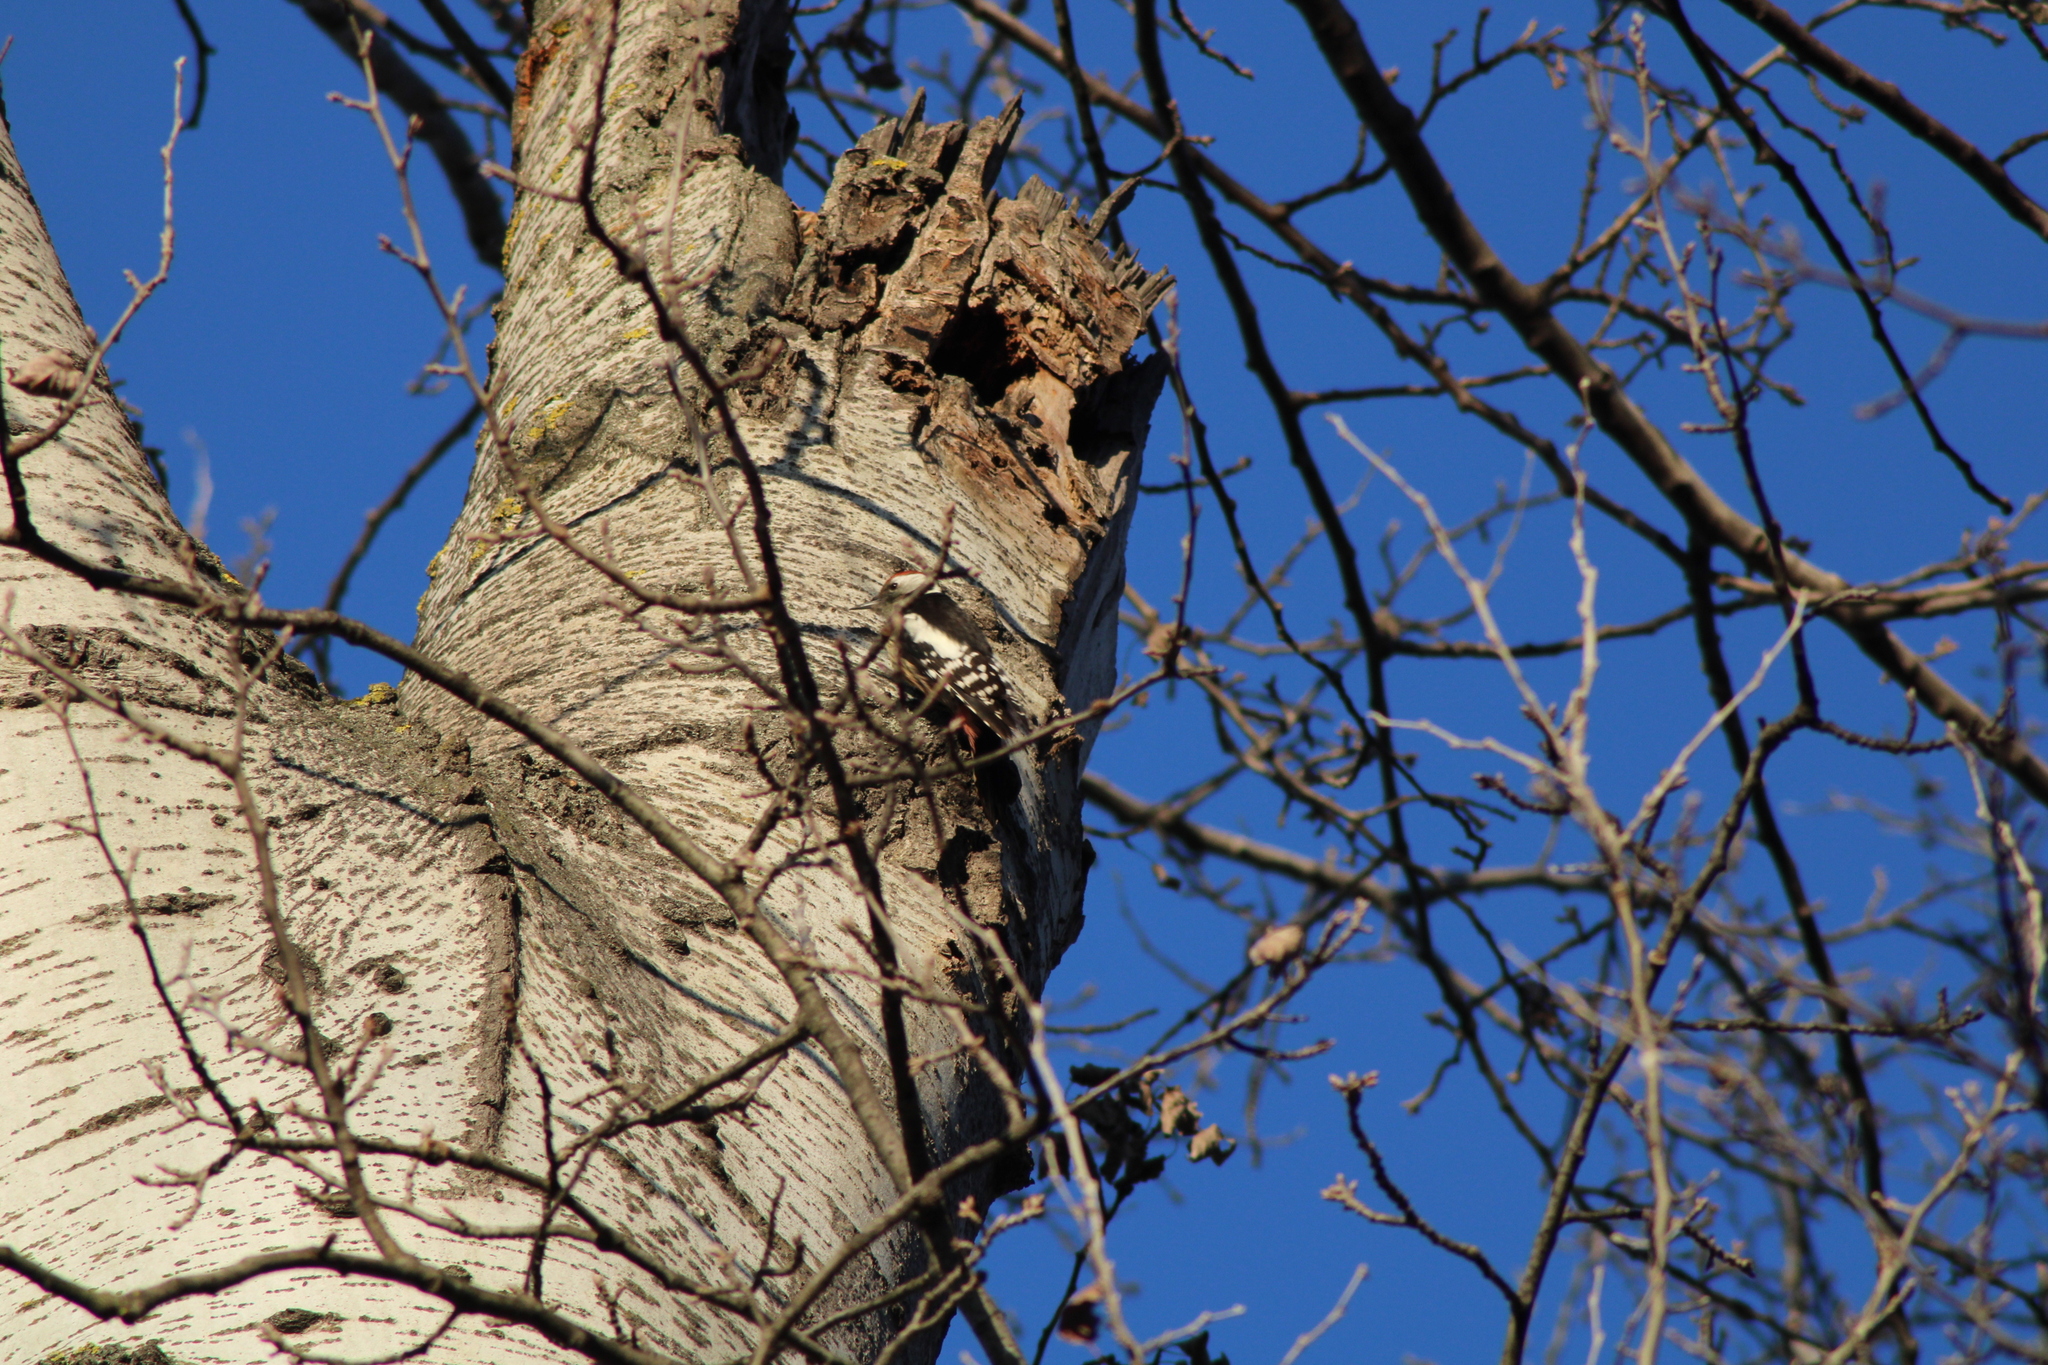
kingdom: Animalia
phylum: Chordata
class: Aves
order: Piciformes
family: Picidae
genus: Dendrocoptes
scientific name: Dendrocoptes medius
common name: Middle spotted woodpecker
